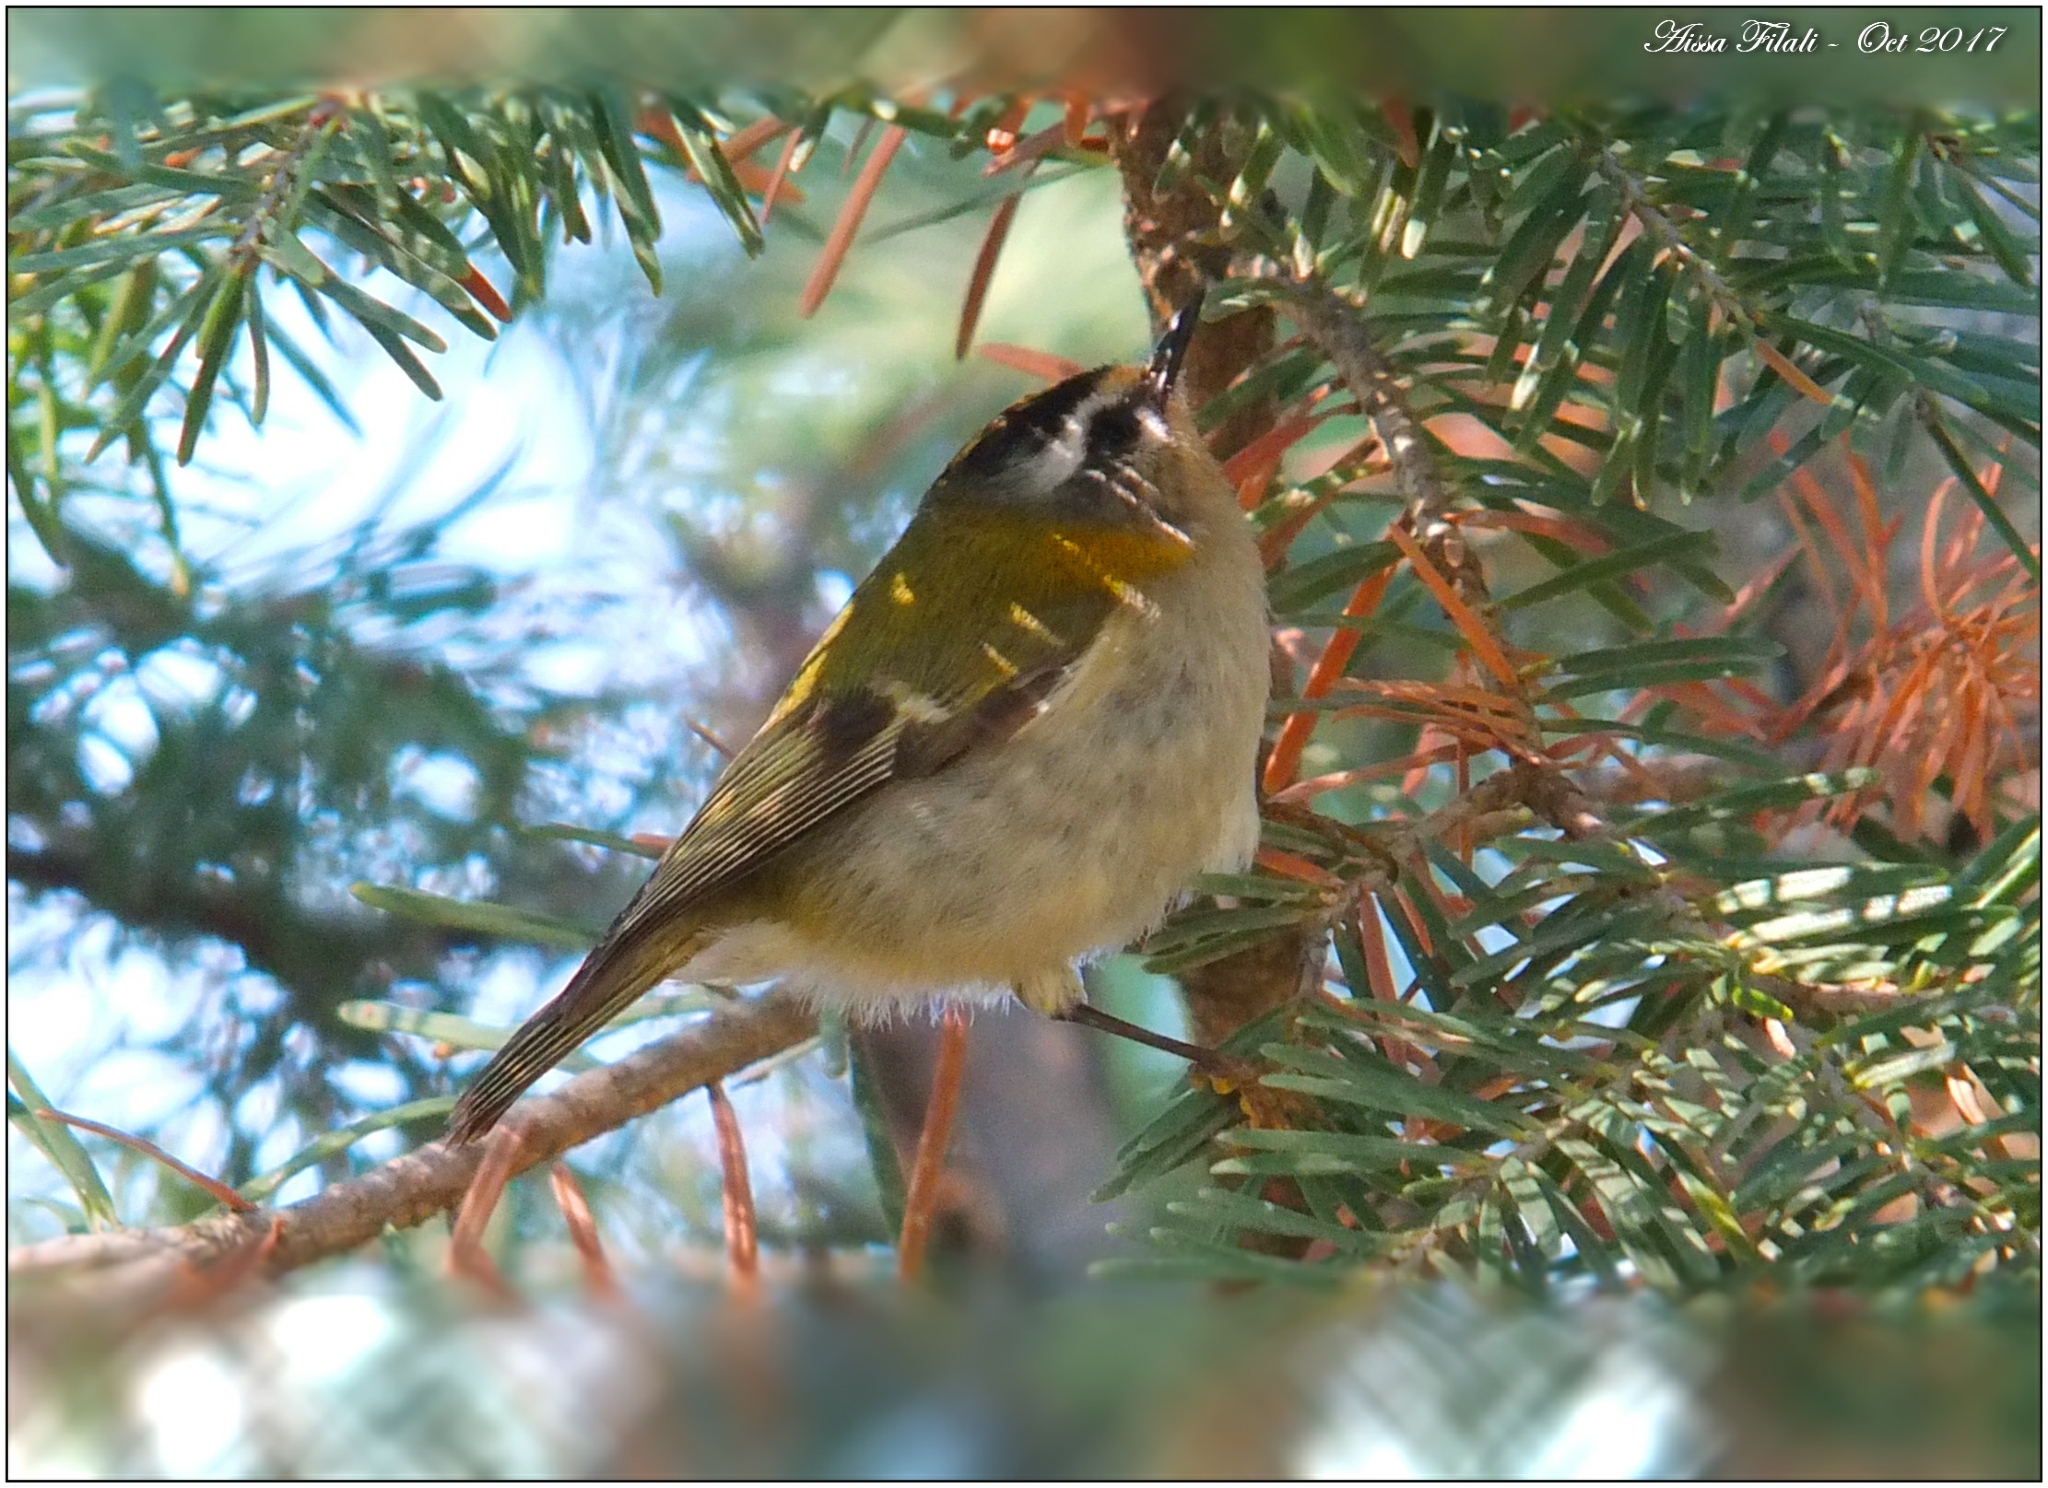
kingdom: Animalia
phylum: Chordata
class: Aves
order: Passeriformes
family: Regulidae
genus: Regulus
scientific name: Regulus ignicapilla
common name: Firecrest
